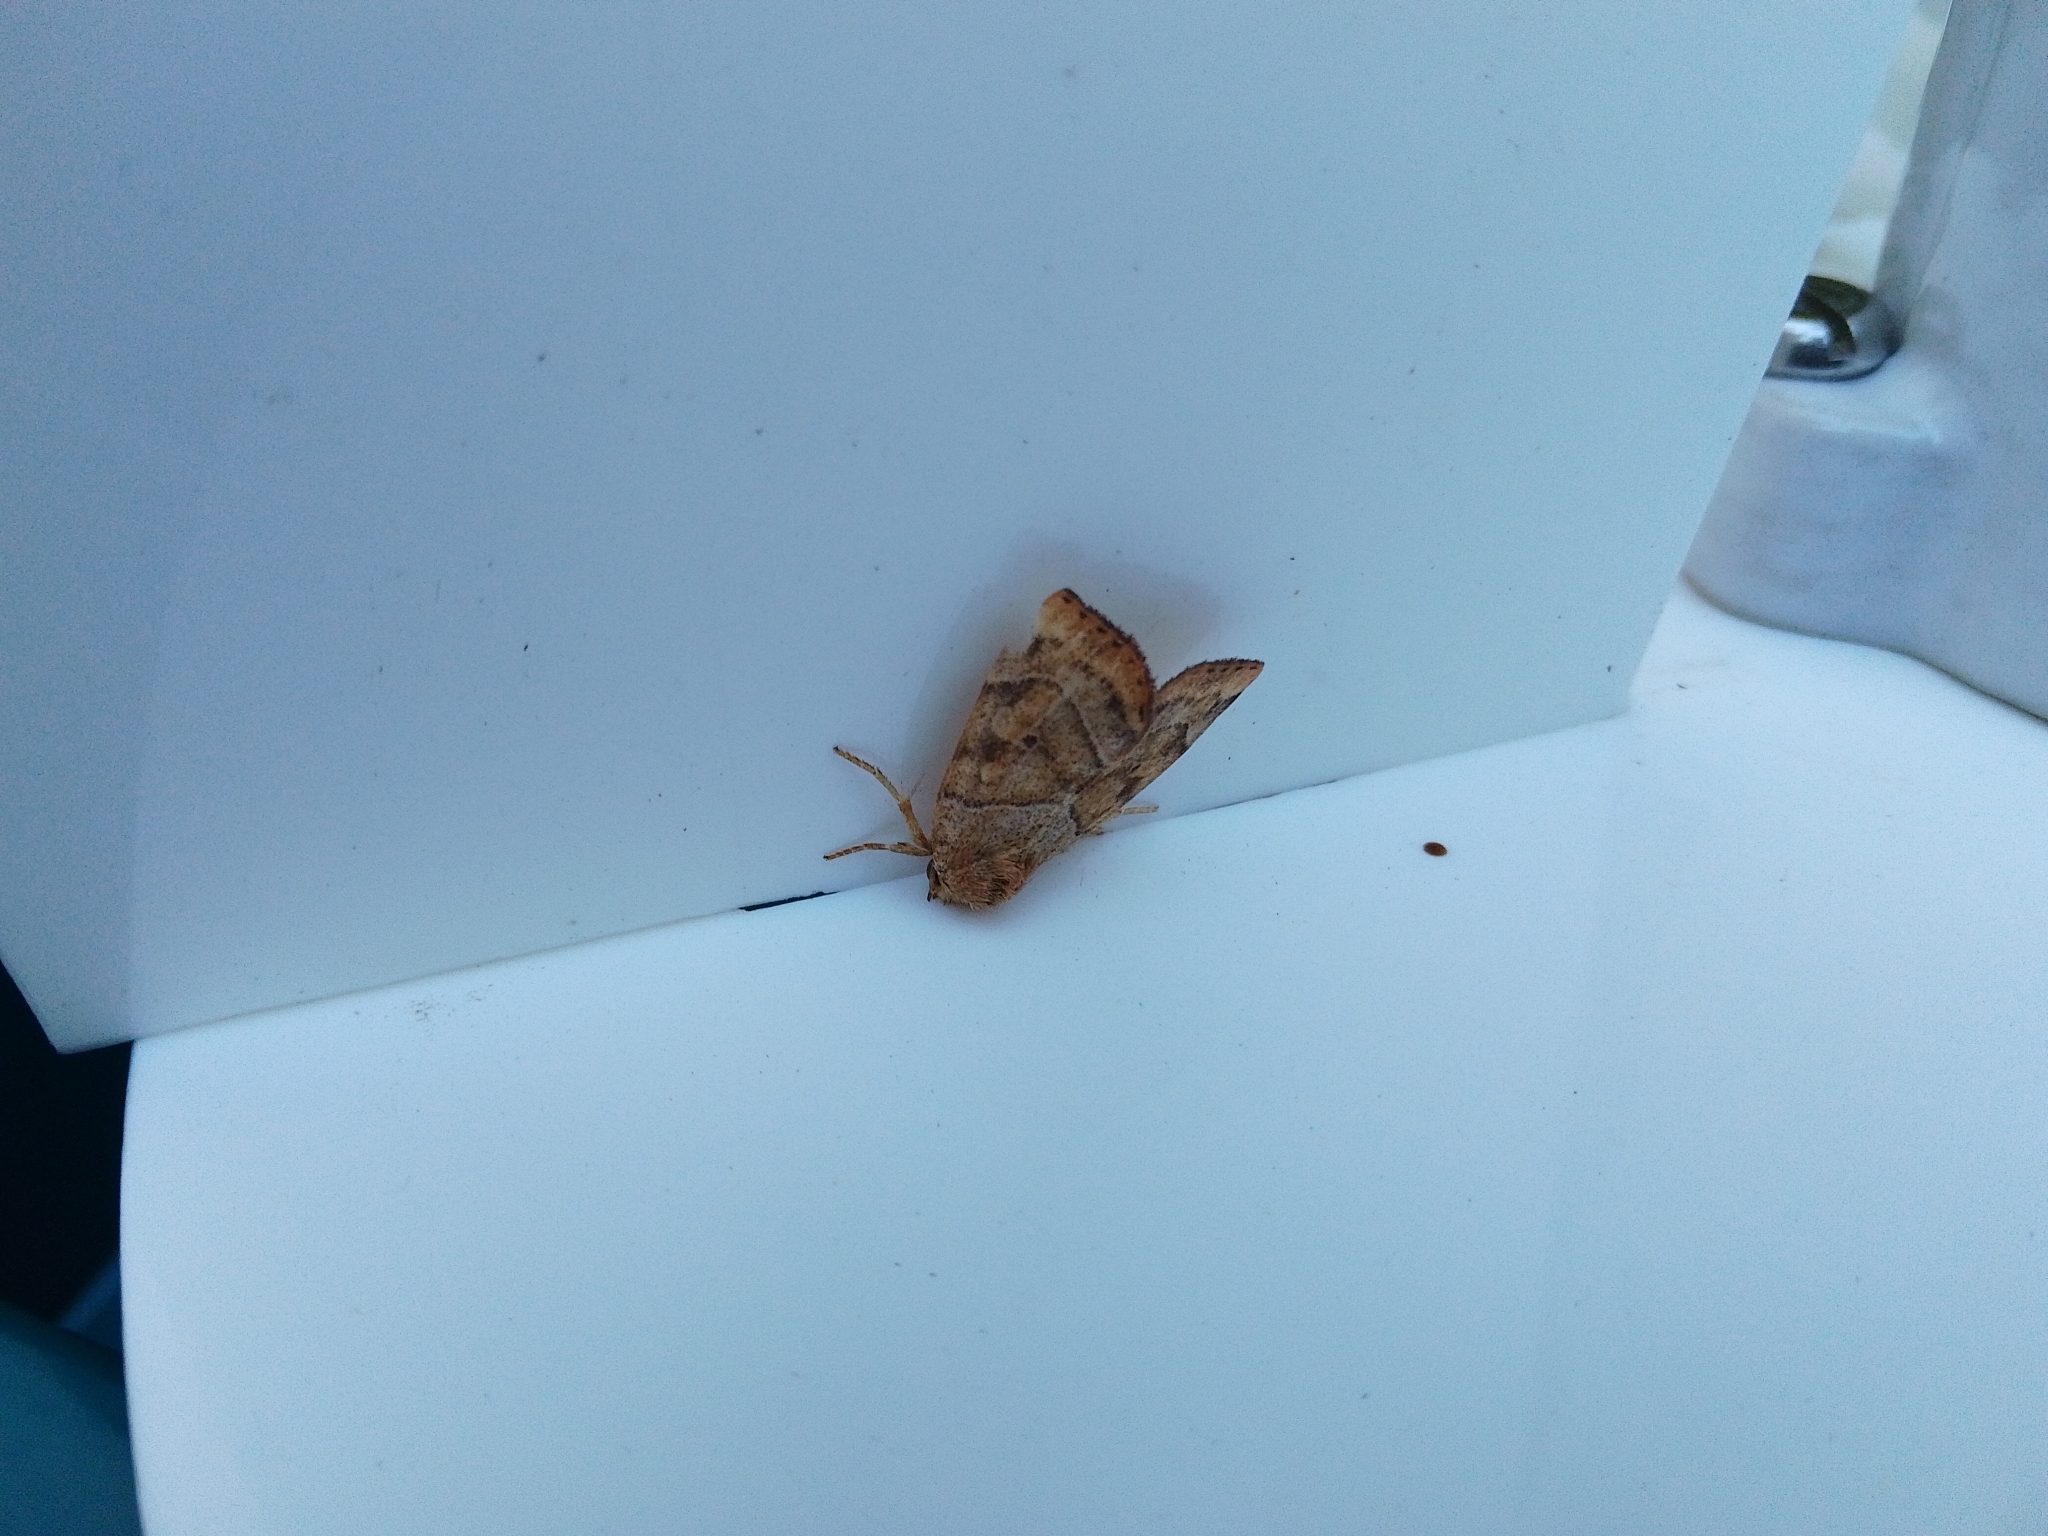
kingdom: Animalia
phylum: Arthropoda
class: Insecta
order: Lepidoptera
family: Noctuidae
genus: Cosmia
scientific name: Cosmia trapezina
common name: Dun-bar
